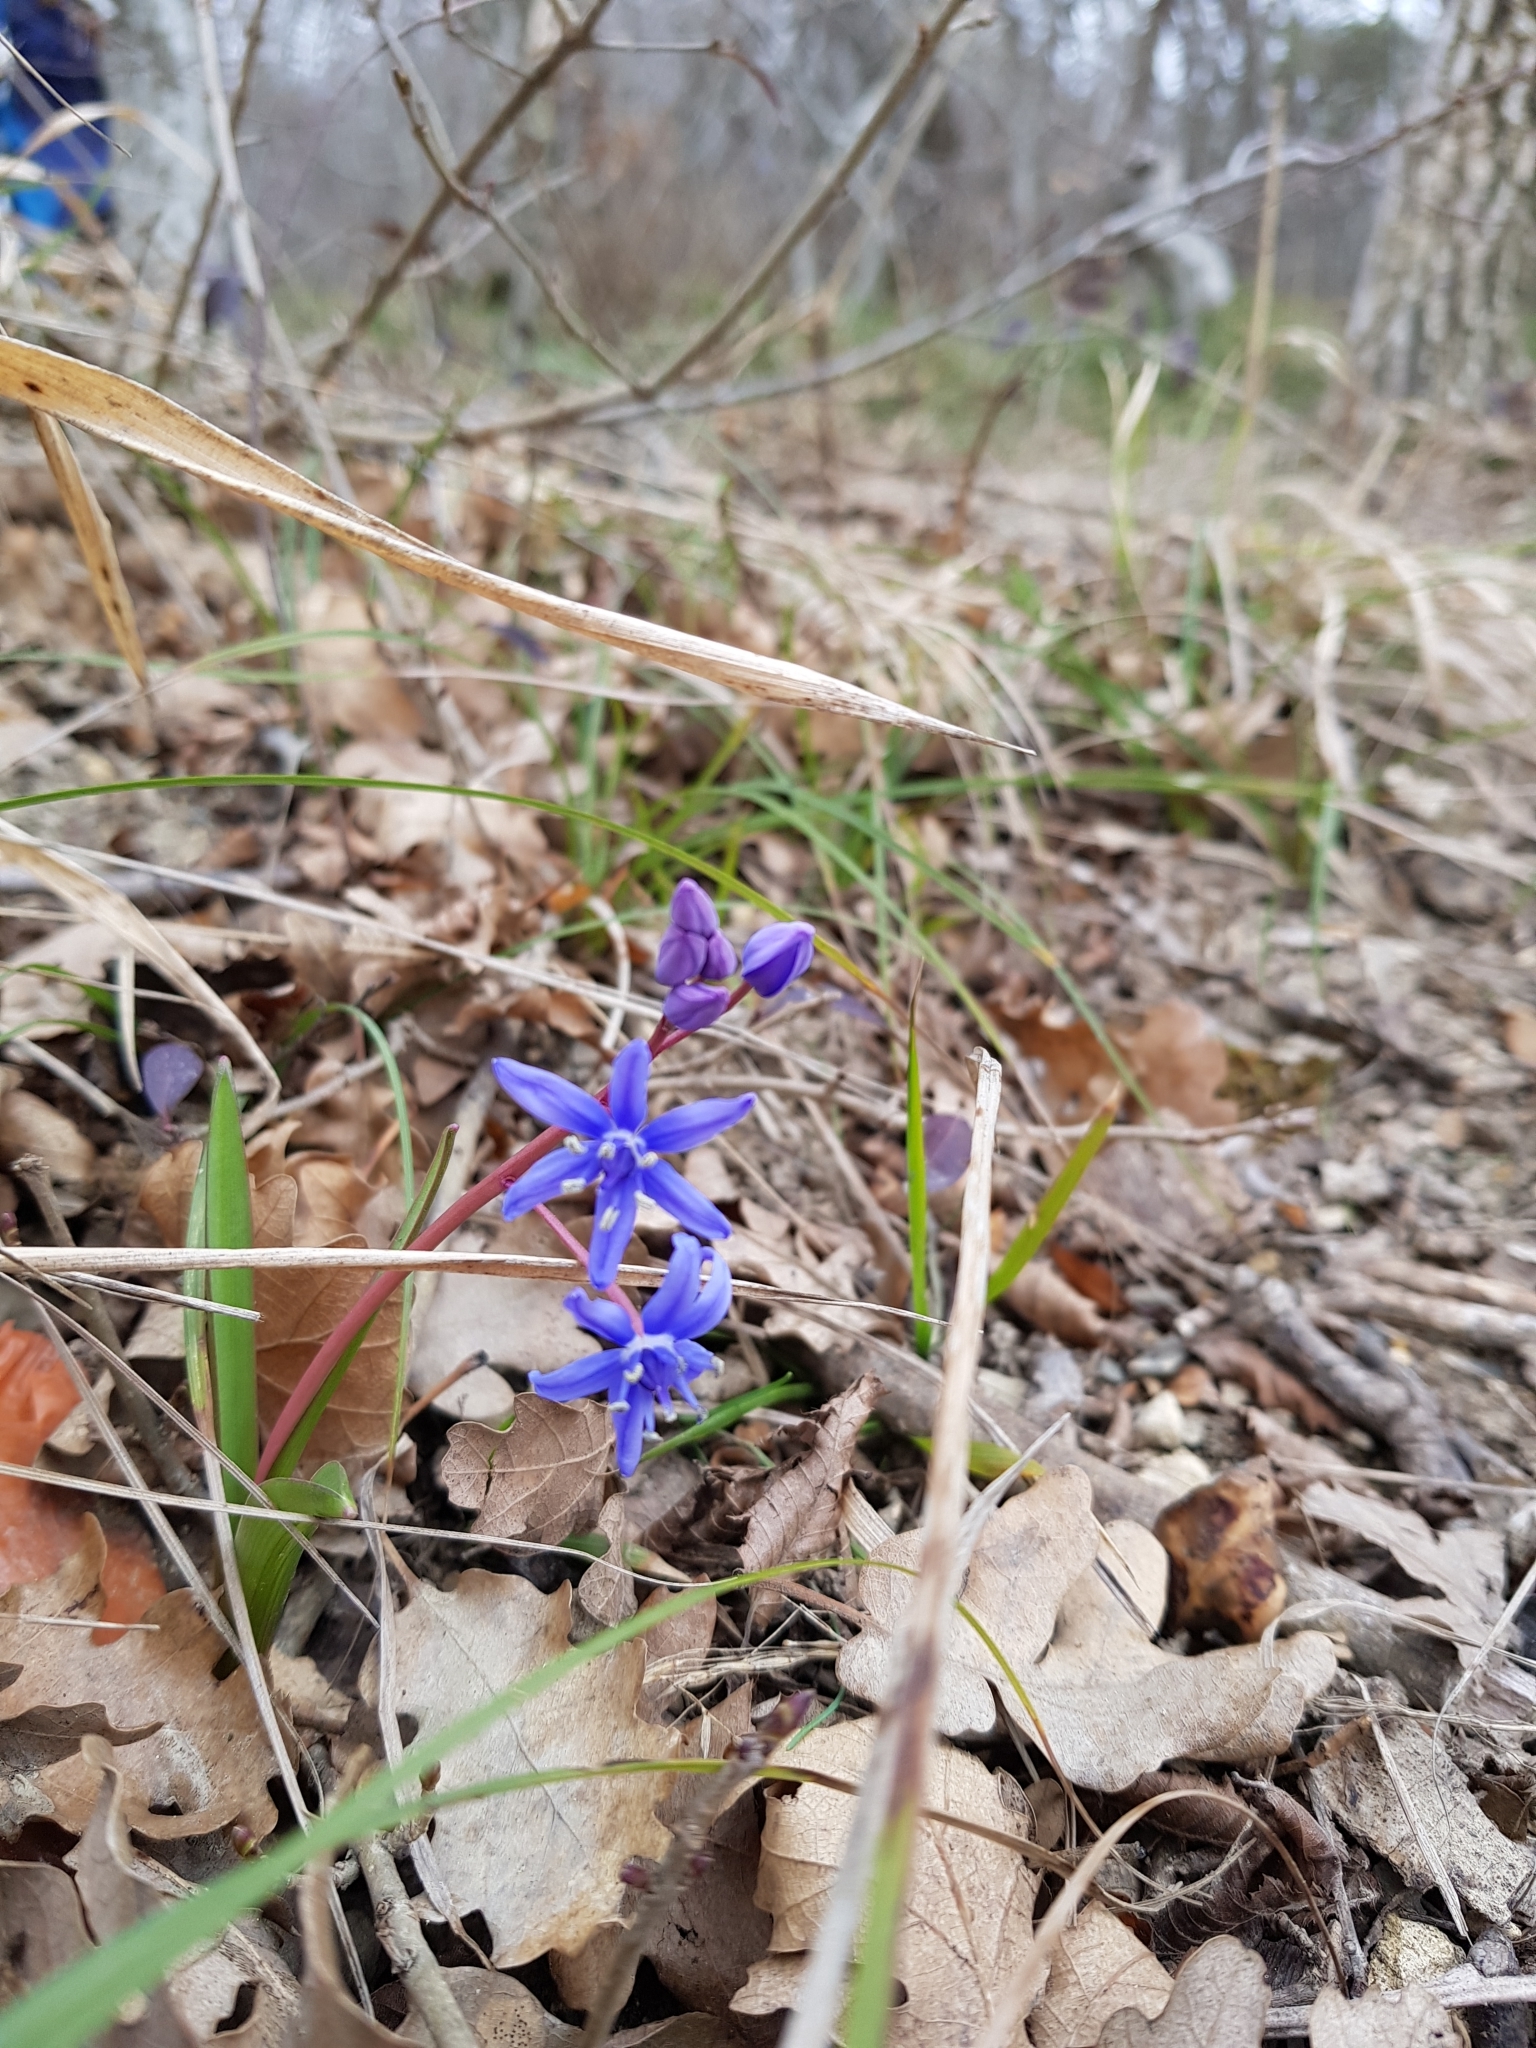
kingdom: Plantae
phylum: Tracheophyta
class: Liliopsida
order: Asparagales
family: Asparagaceae
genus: Scilla
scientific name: Scilla bifolia
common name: Alpine squill
